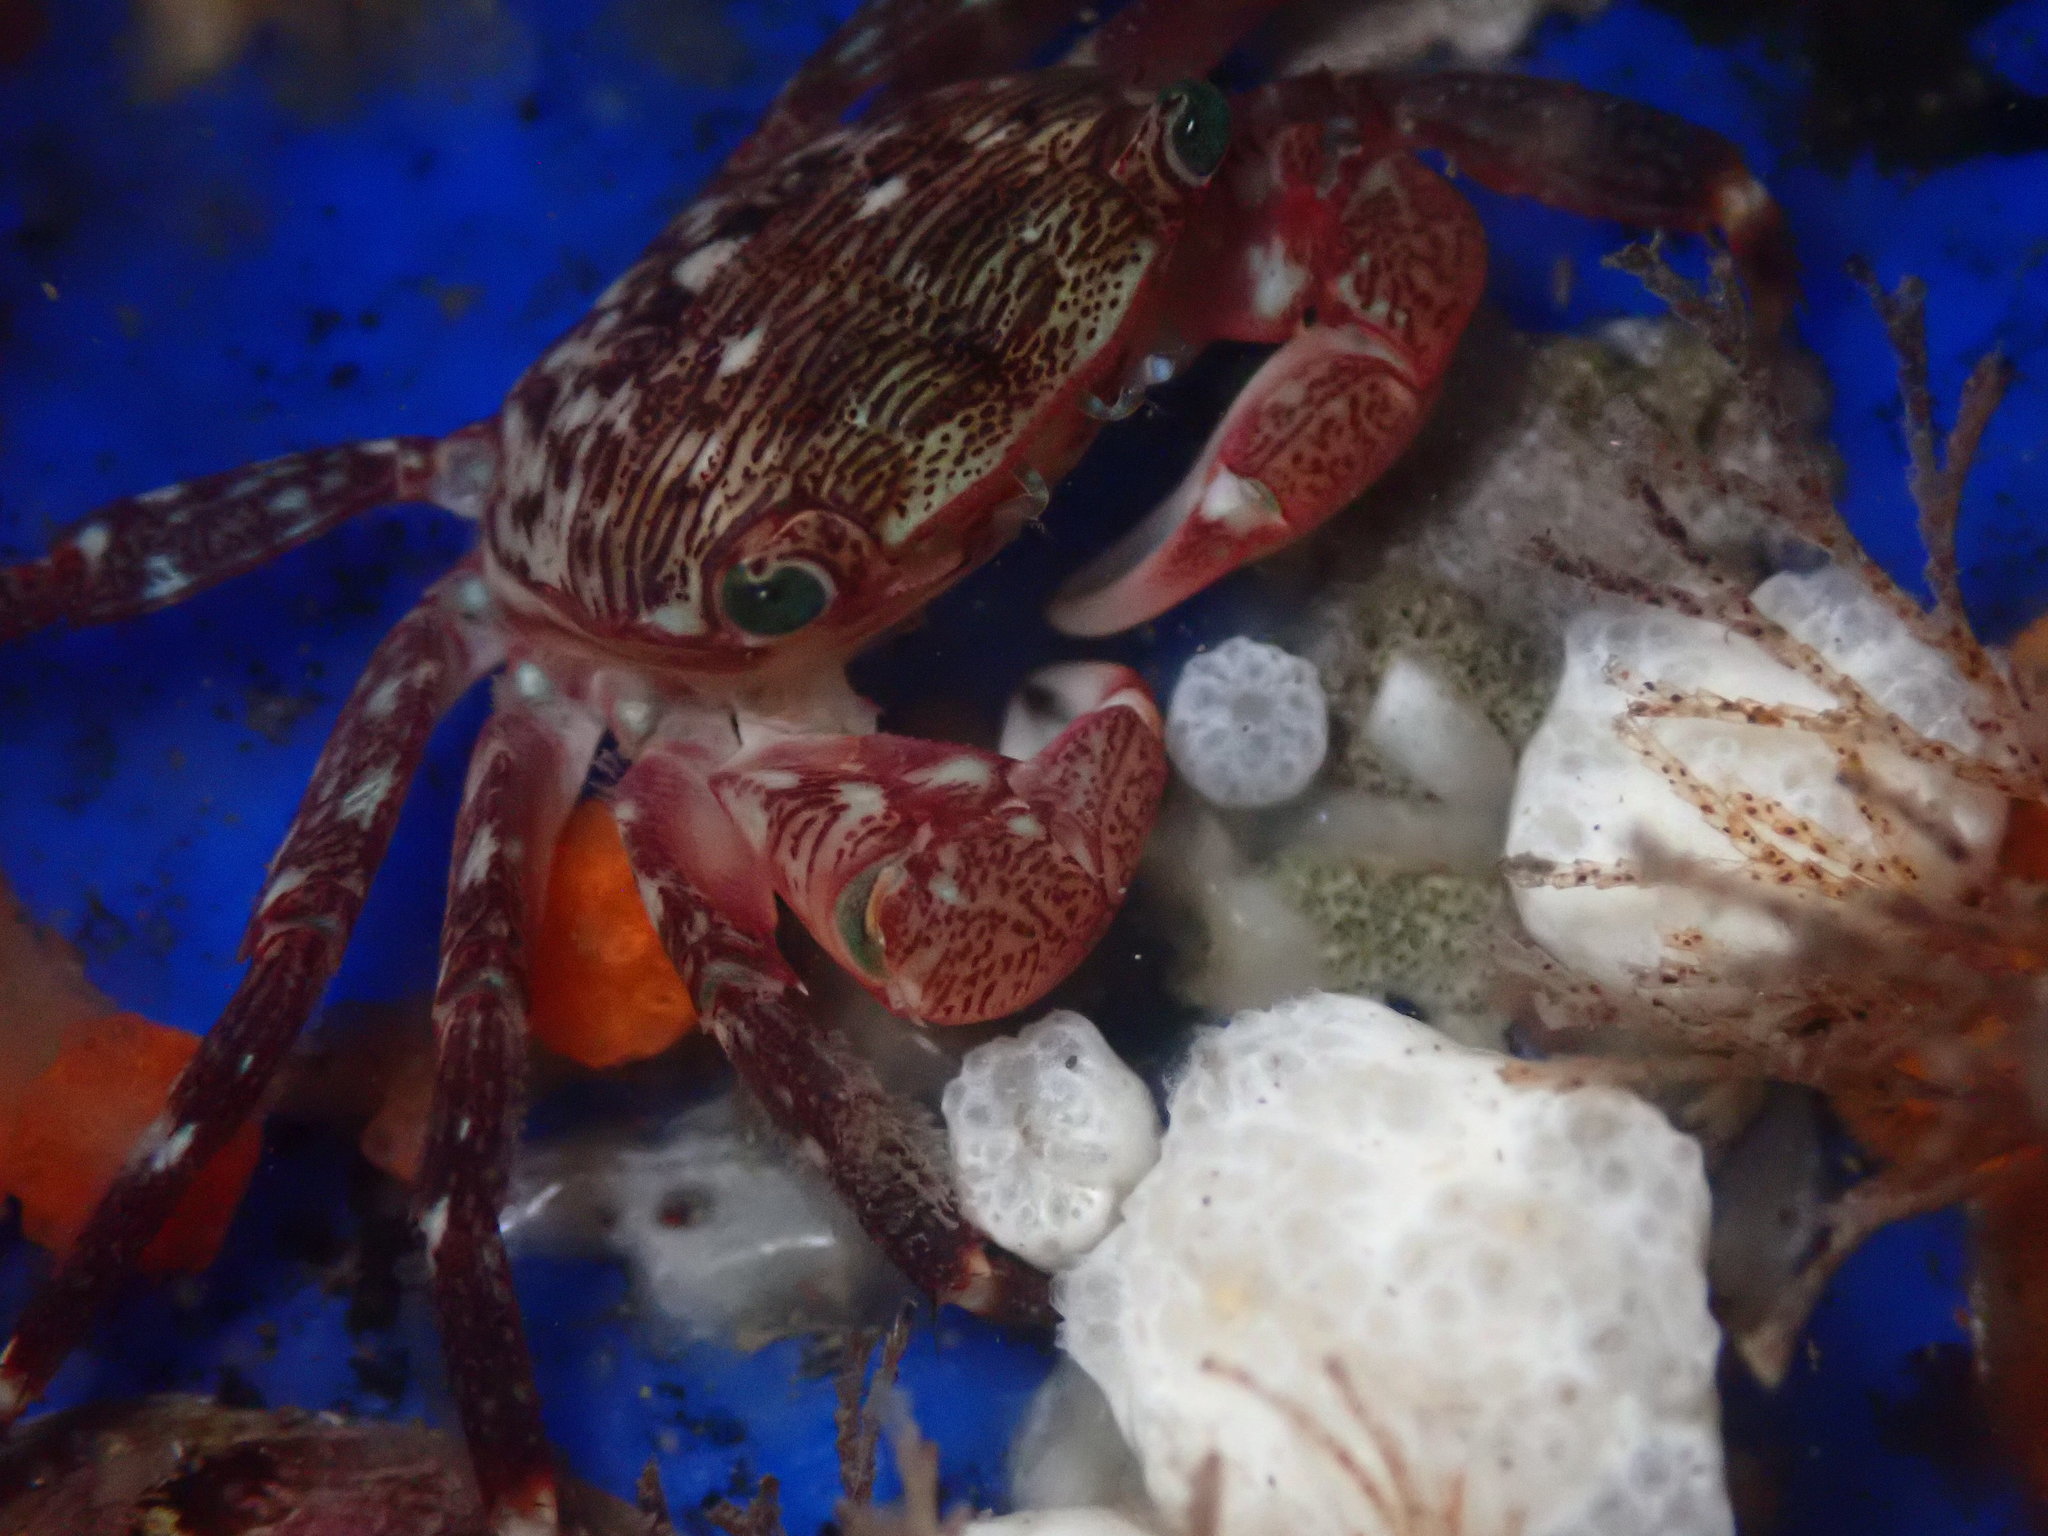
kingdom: Animalia
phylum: Arthropoda
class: Malacostraca
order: Decapoda
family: Grapsidae
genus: Pachygrapsus
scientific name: Pachygrapsus crassipes
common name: Striped shore crab
